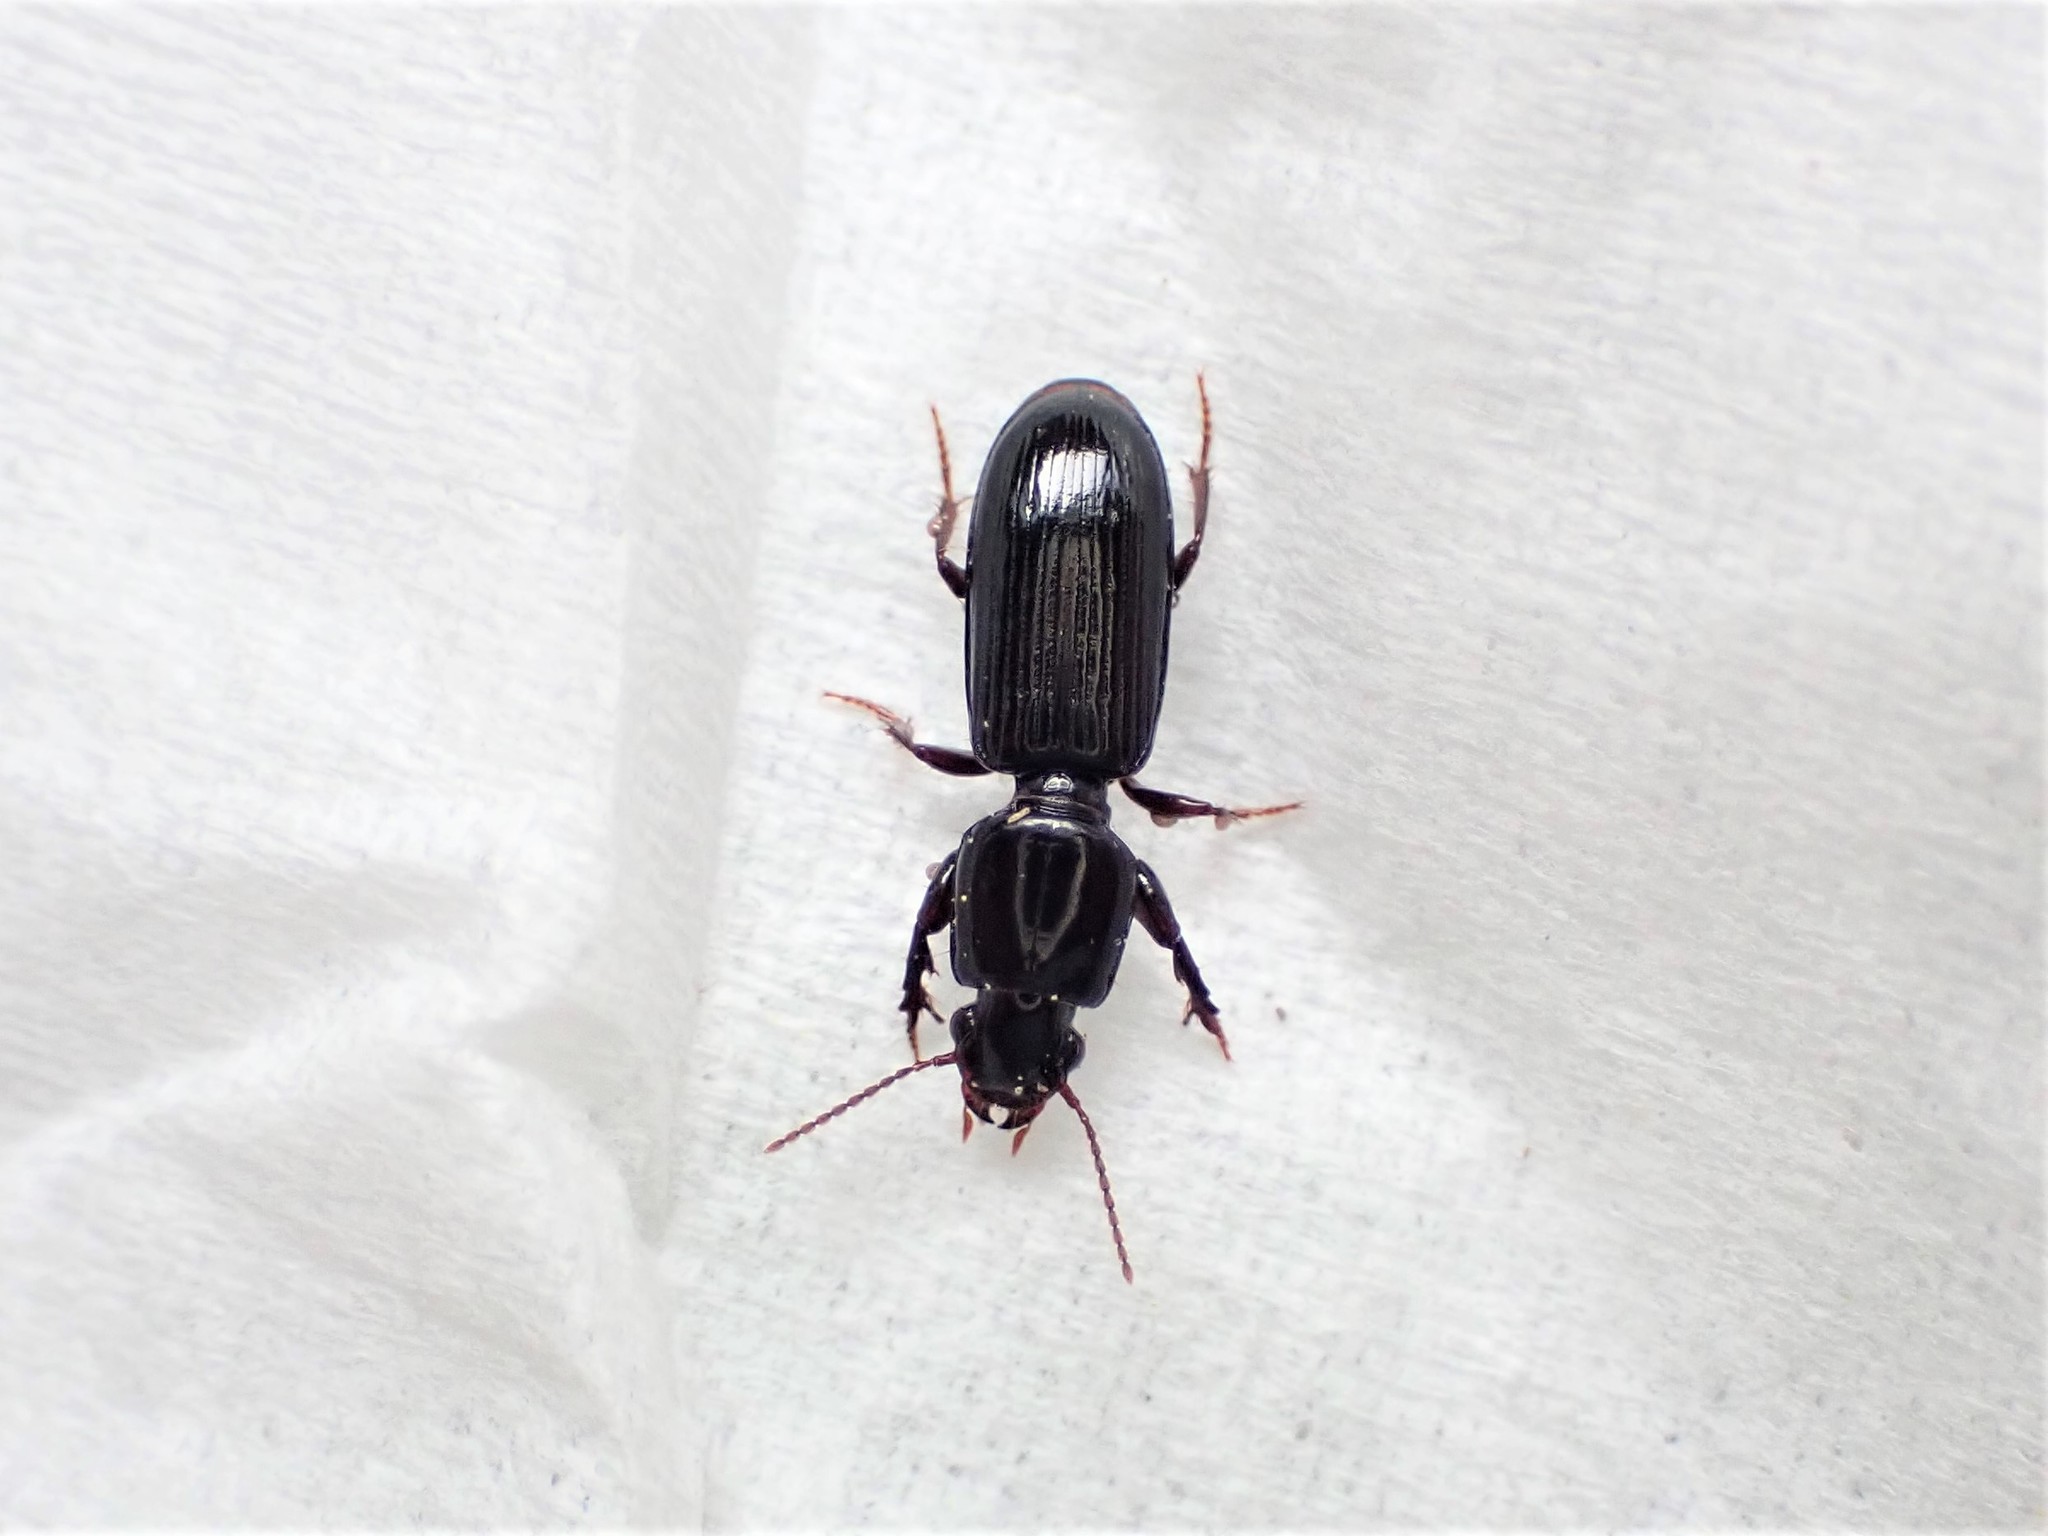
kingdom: Animalia
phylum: Arthropoda
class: Insecta
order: Coleoptera
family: Carabidae
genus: Clivina
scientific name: Clivina vagans
